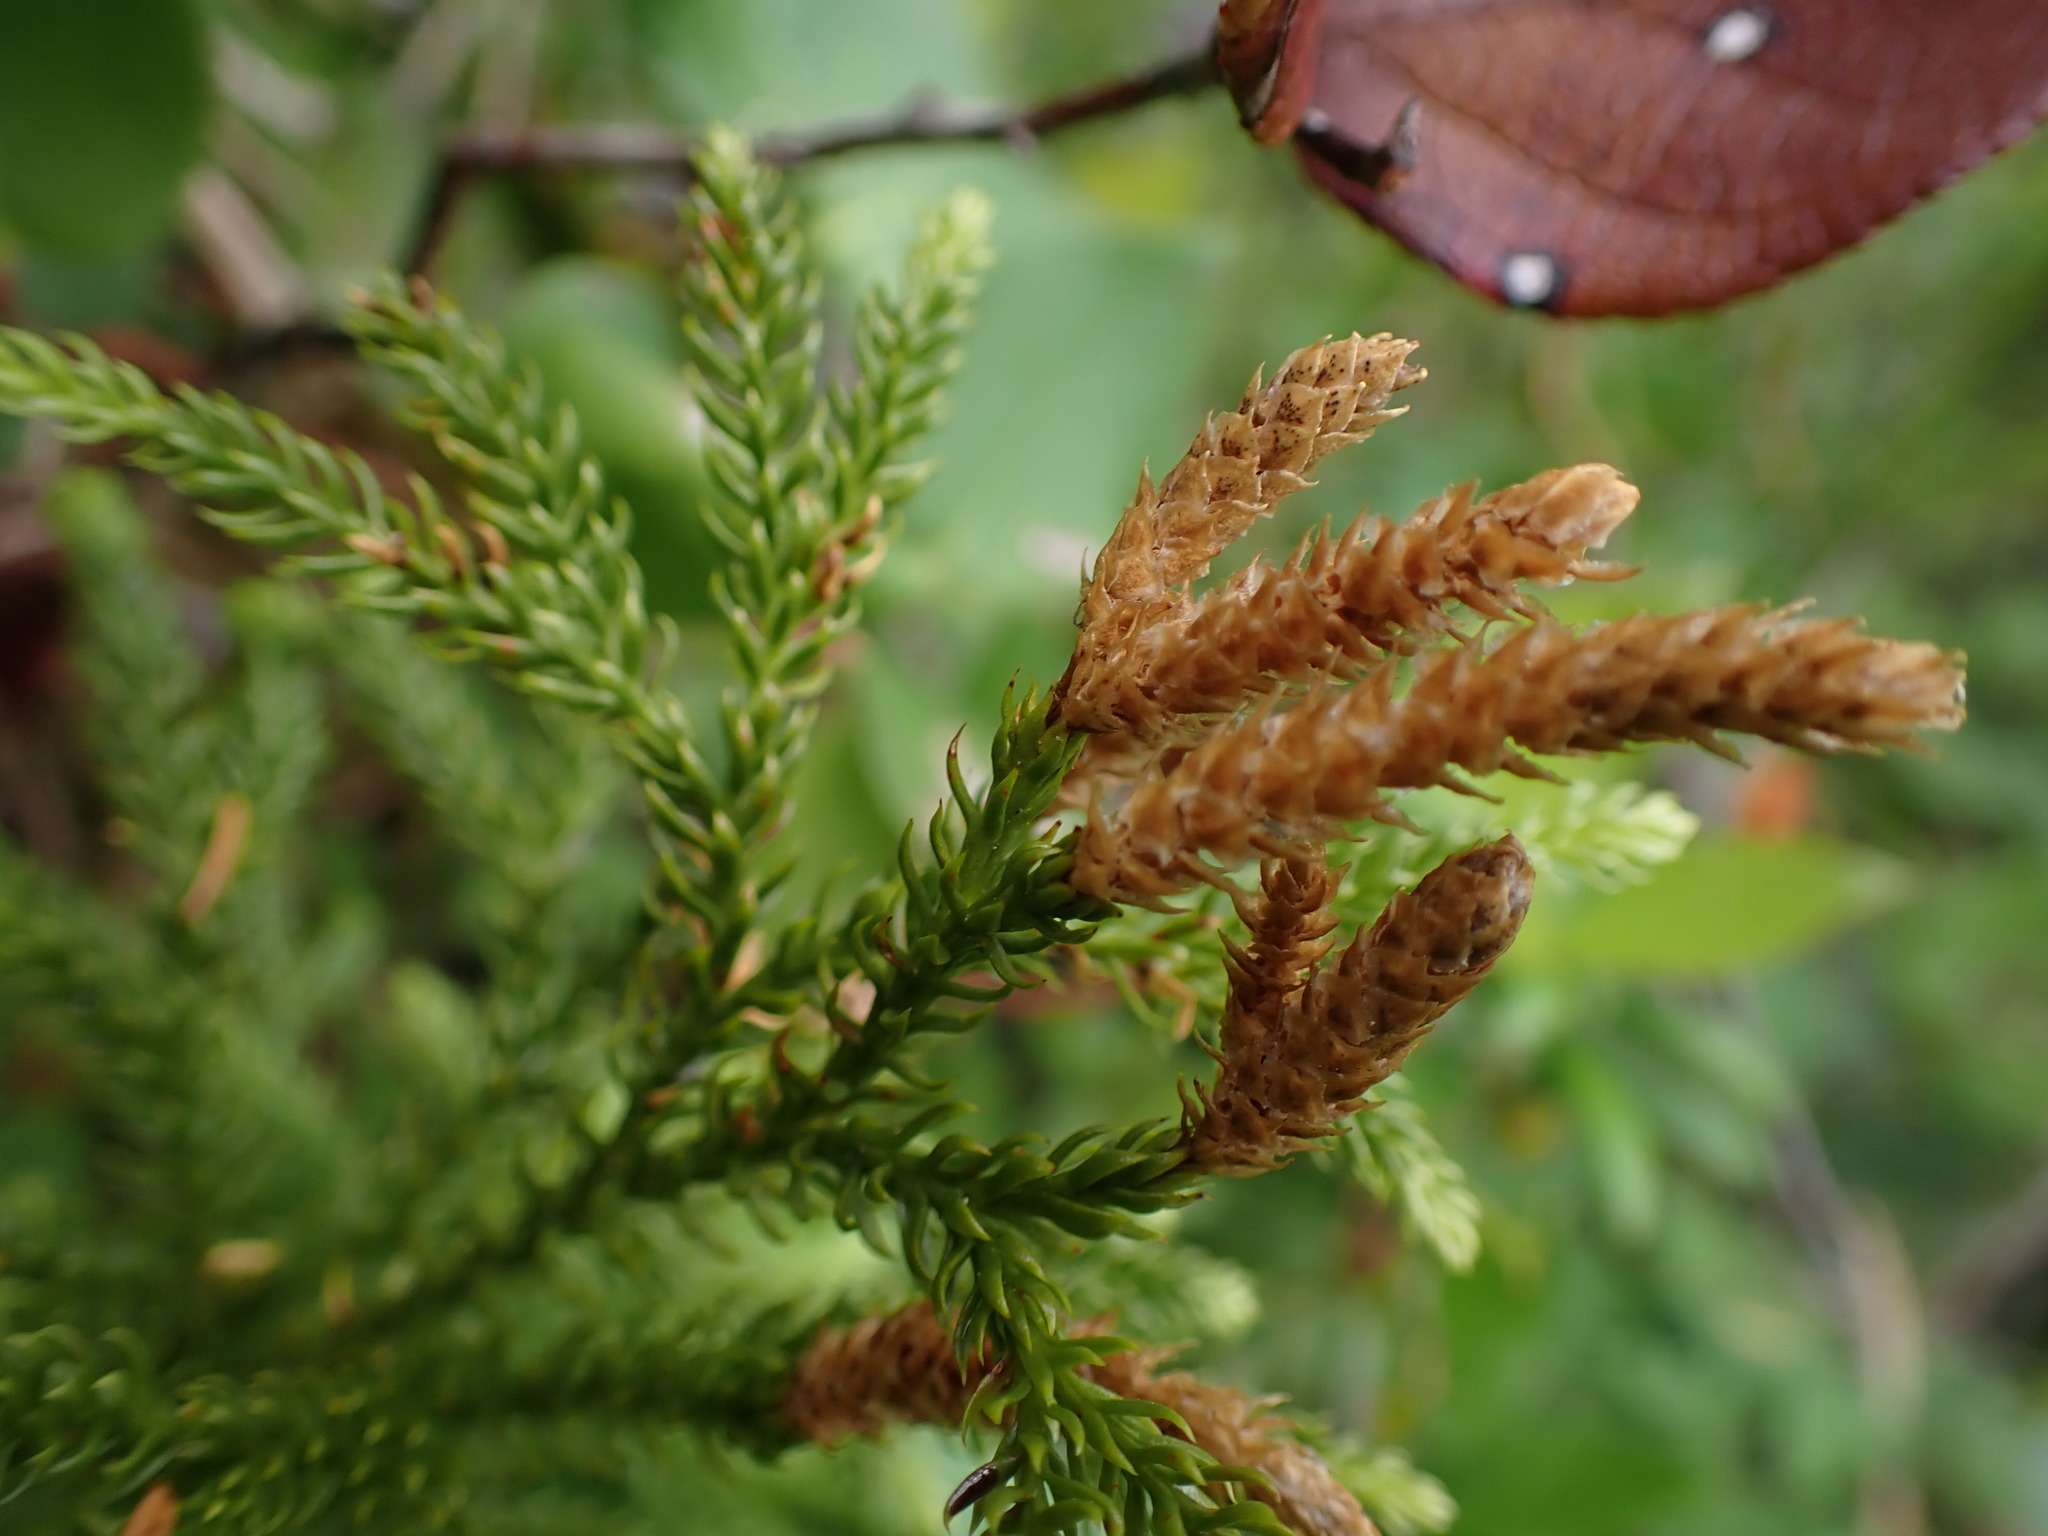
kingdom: Plantae
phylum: Tracheophyta
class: Lycopodiopsida
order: Lycopodiales
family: Lycopodiaceae
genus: Dendrolycopodium
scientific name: Dendrolycopodium dendroideum
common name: Northern tree-clubmoss
